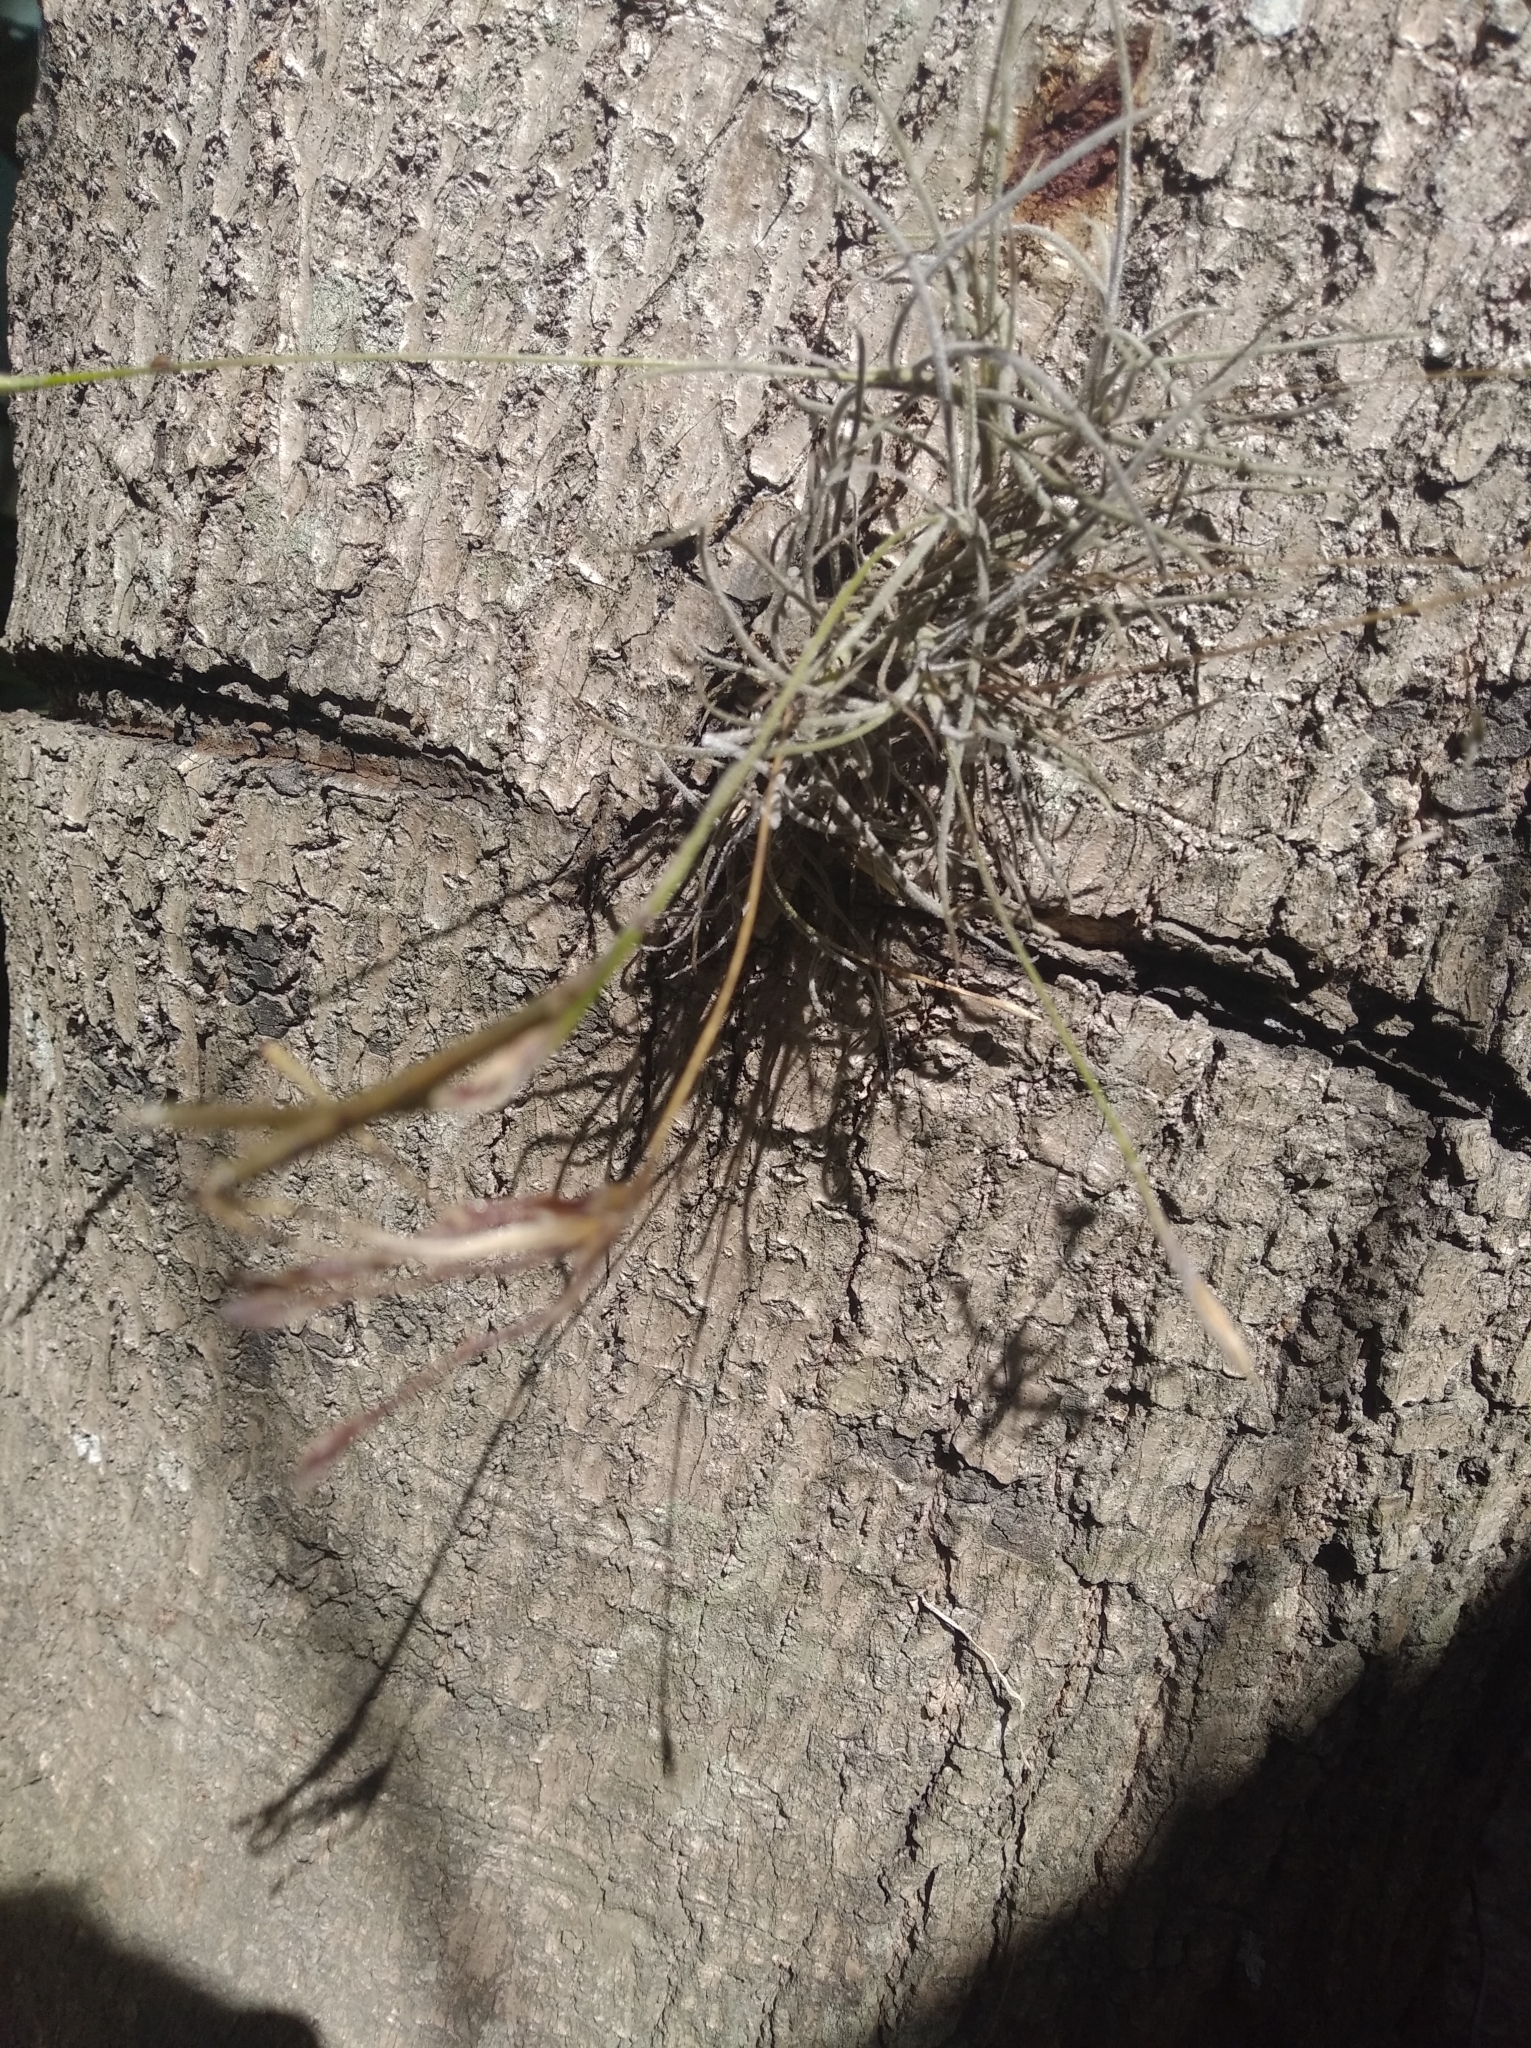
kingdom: Plantae
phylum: Tracheophyta
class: Liliopsida
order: Poales
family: Bromeliaceae
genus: Tillandsia
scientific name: Tillandsia recurvata
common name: Small ballmoss
